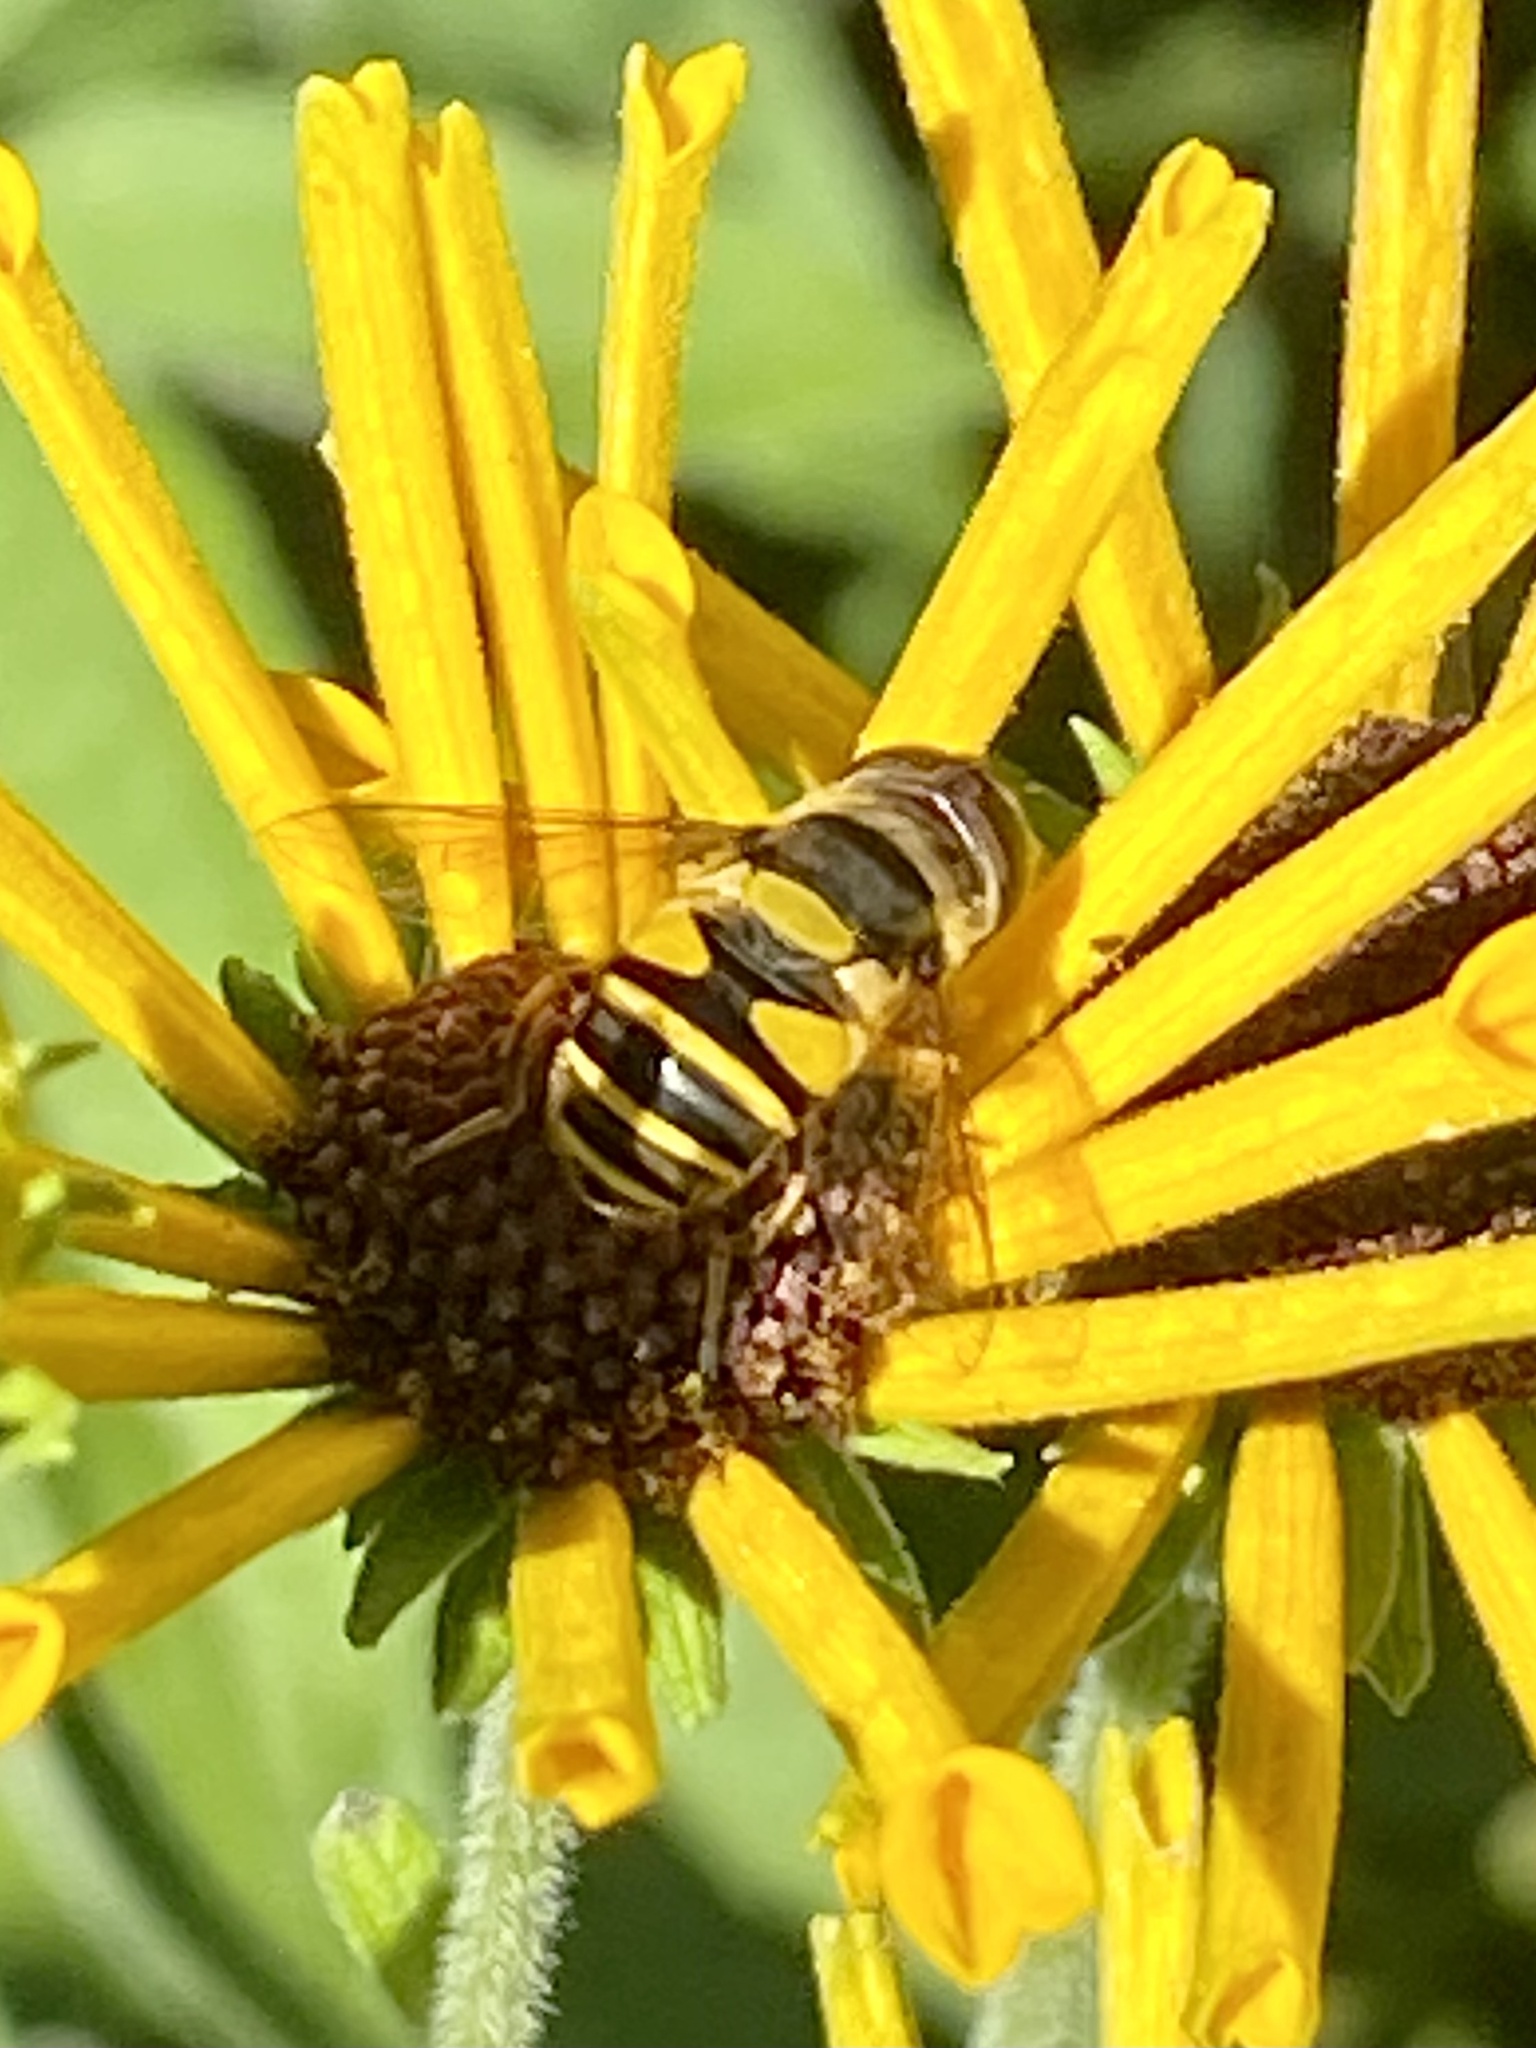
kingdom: Animalia
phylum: Arthropoda
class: Insecta
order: Diptera
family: Syrphidae
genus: Eristalis
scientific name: Eristalis transversa
